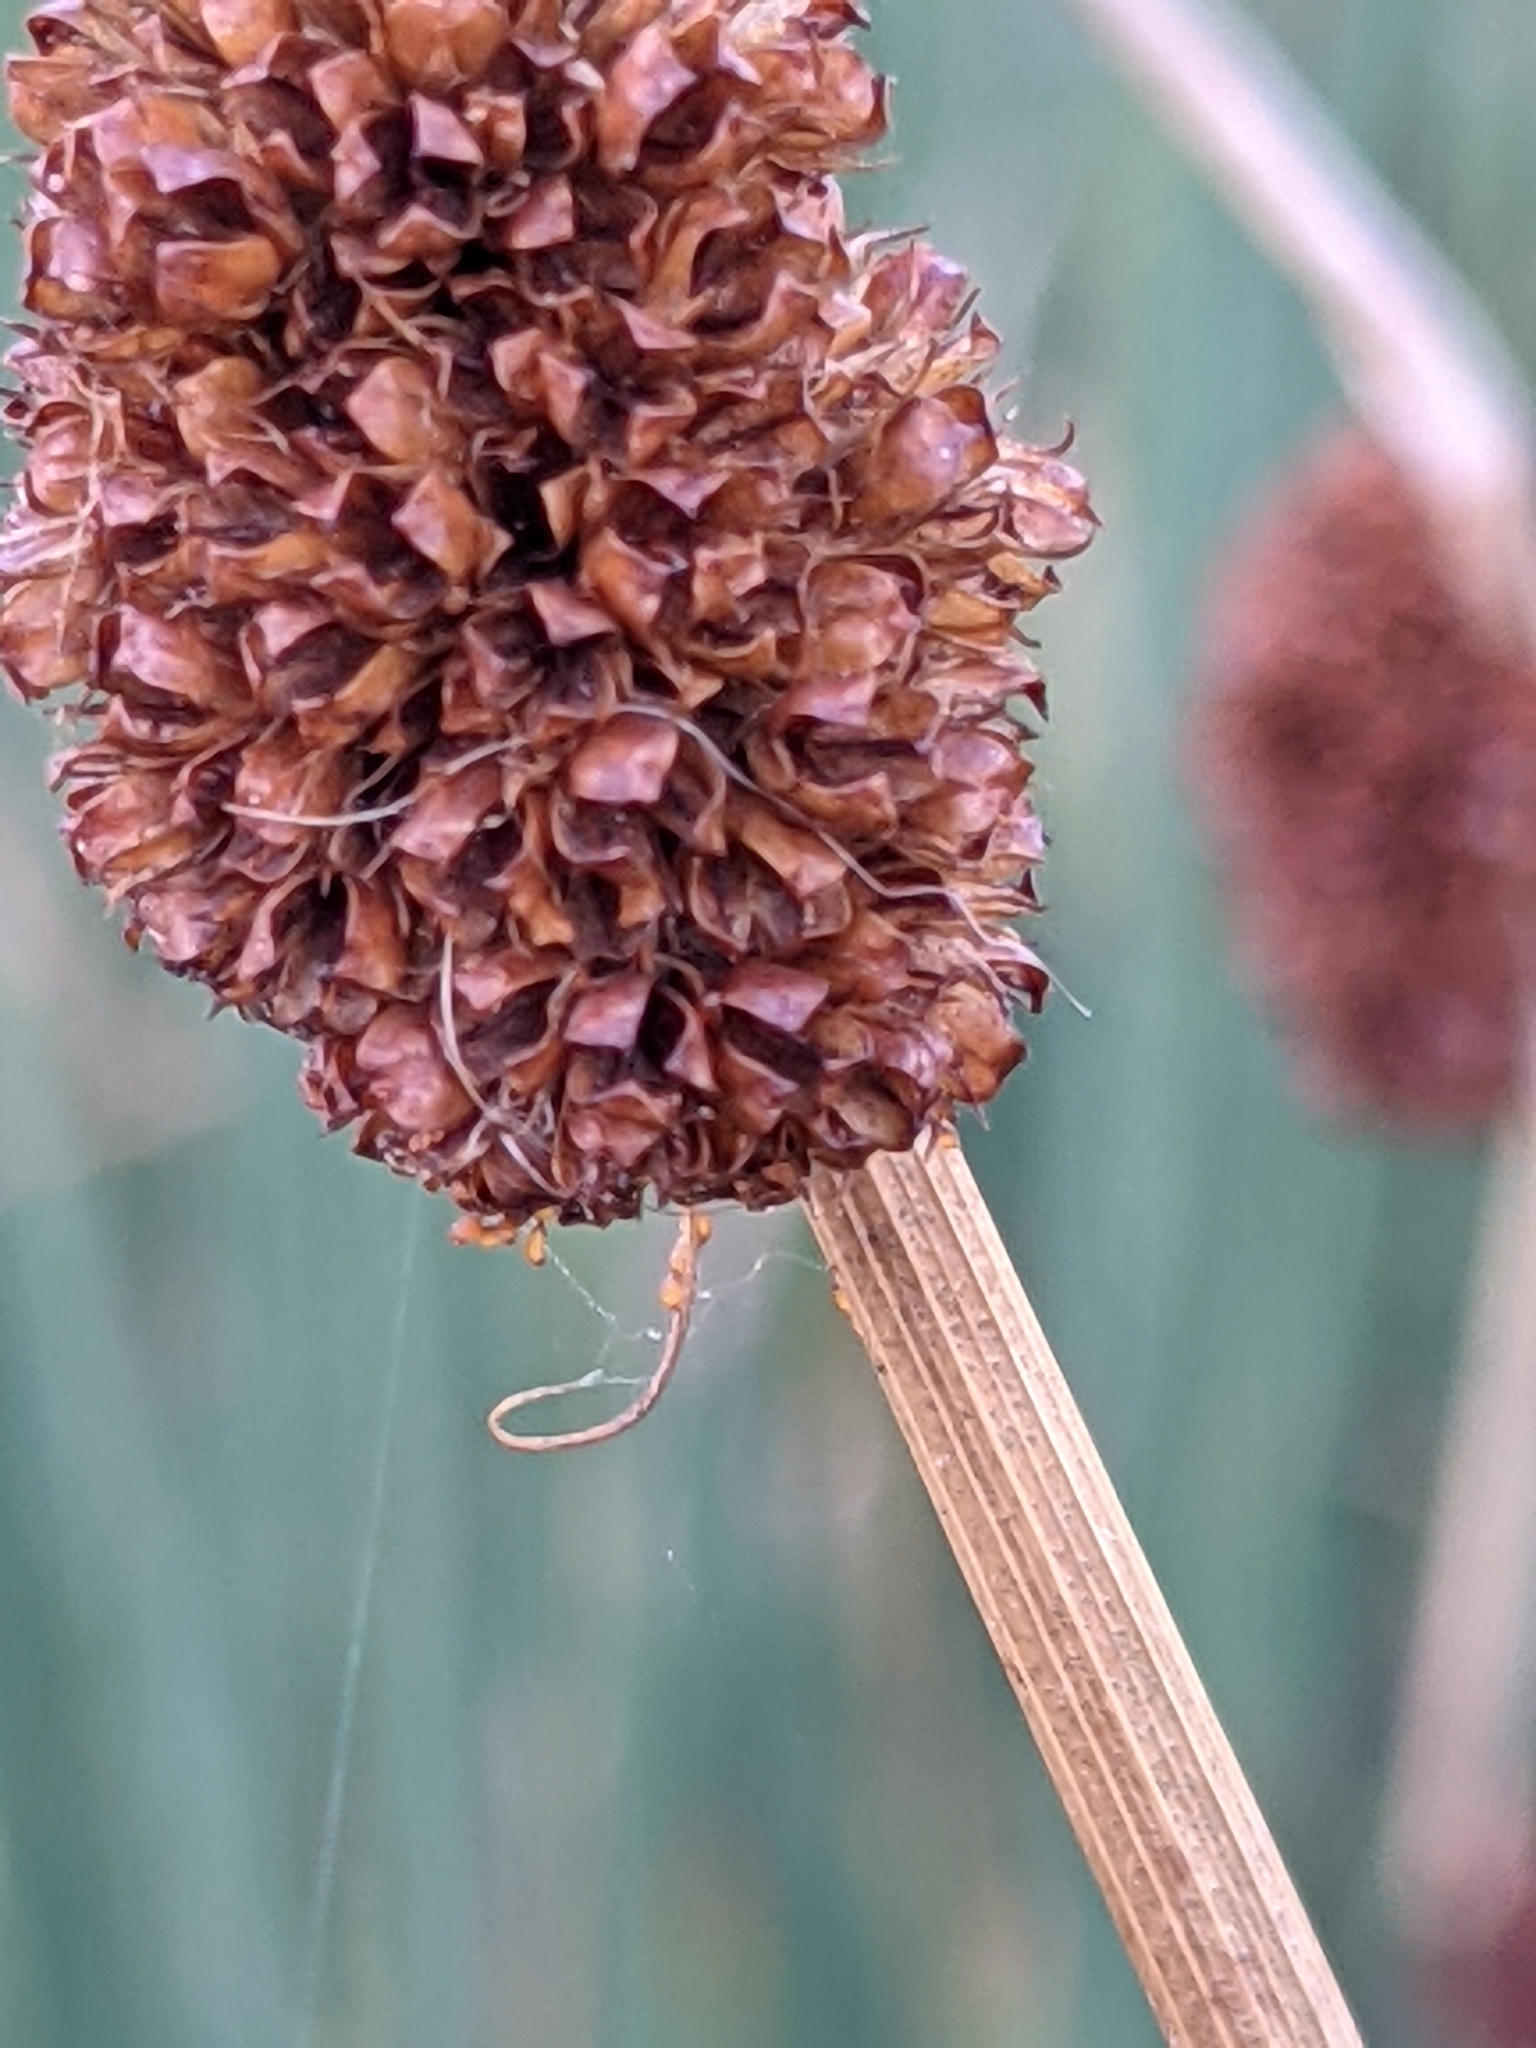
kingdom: Plantae
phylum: Tracheophyta
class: Liliopsida
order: Poales
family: Juncaceae
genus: Juncus
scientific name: Juncus conglomeratus
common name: Compact rush
